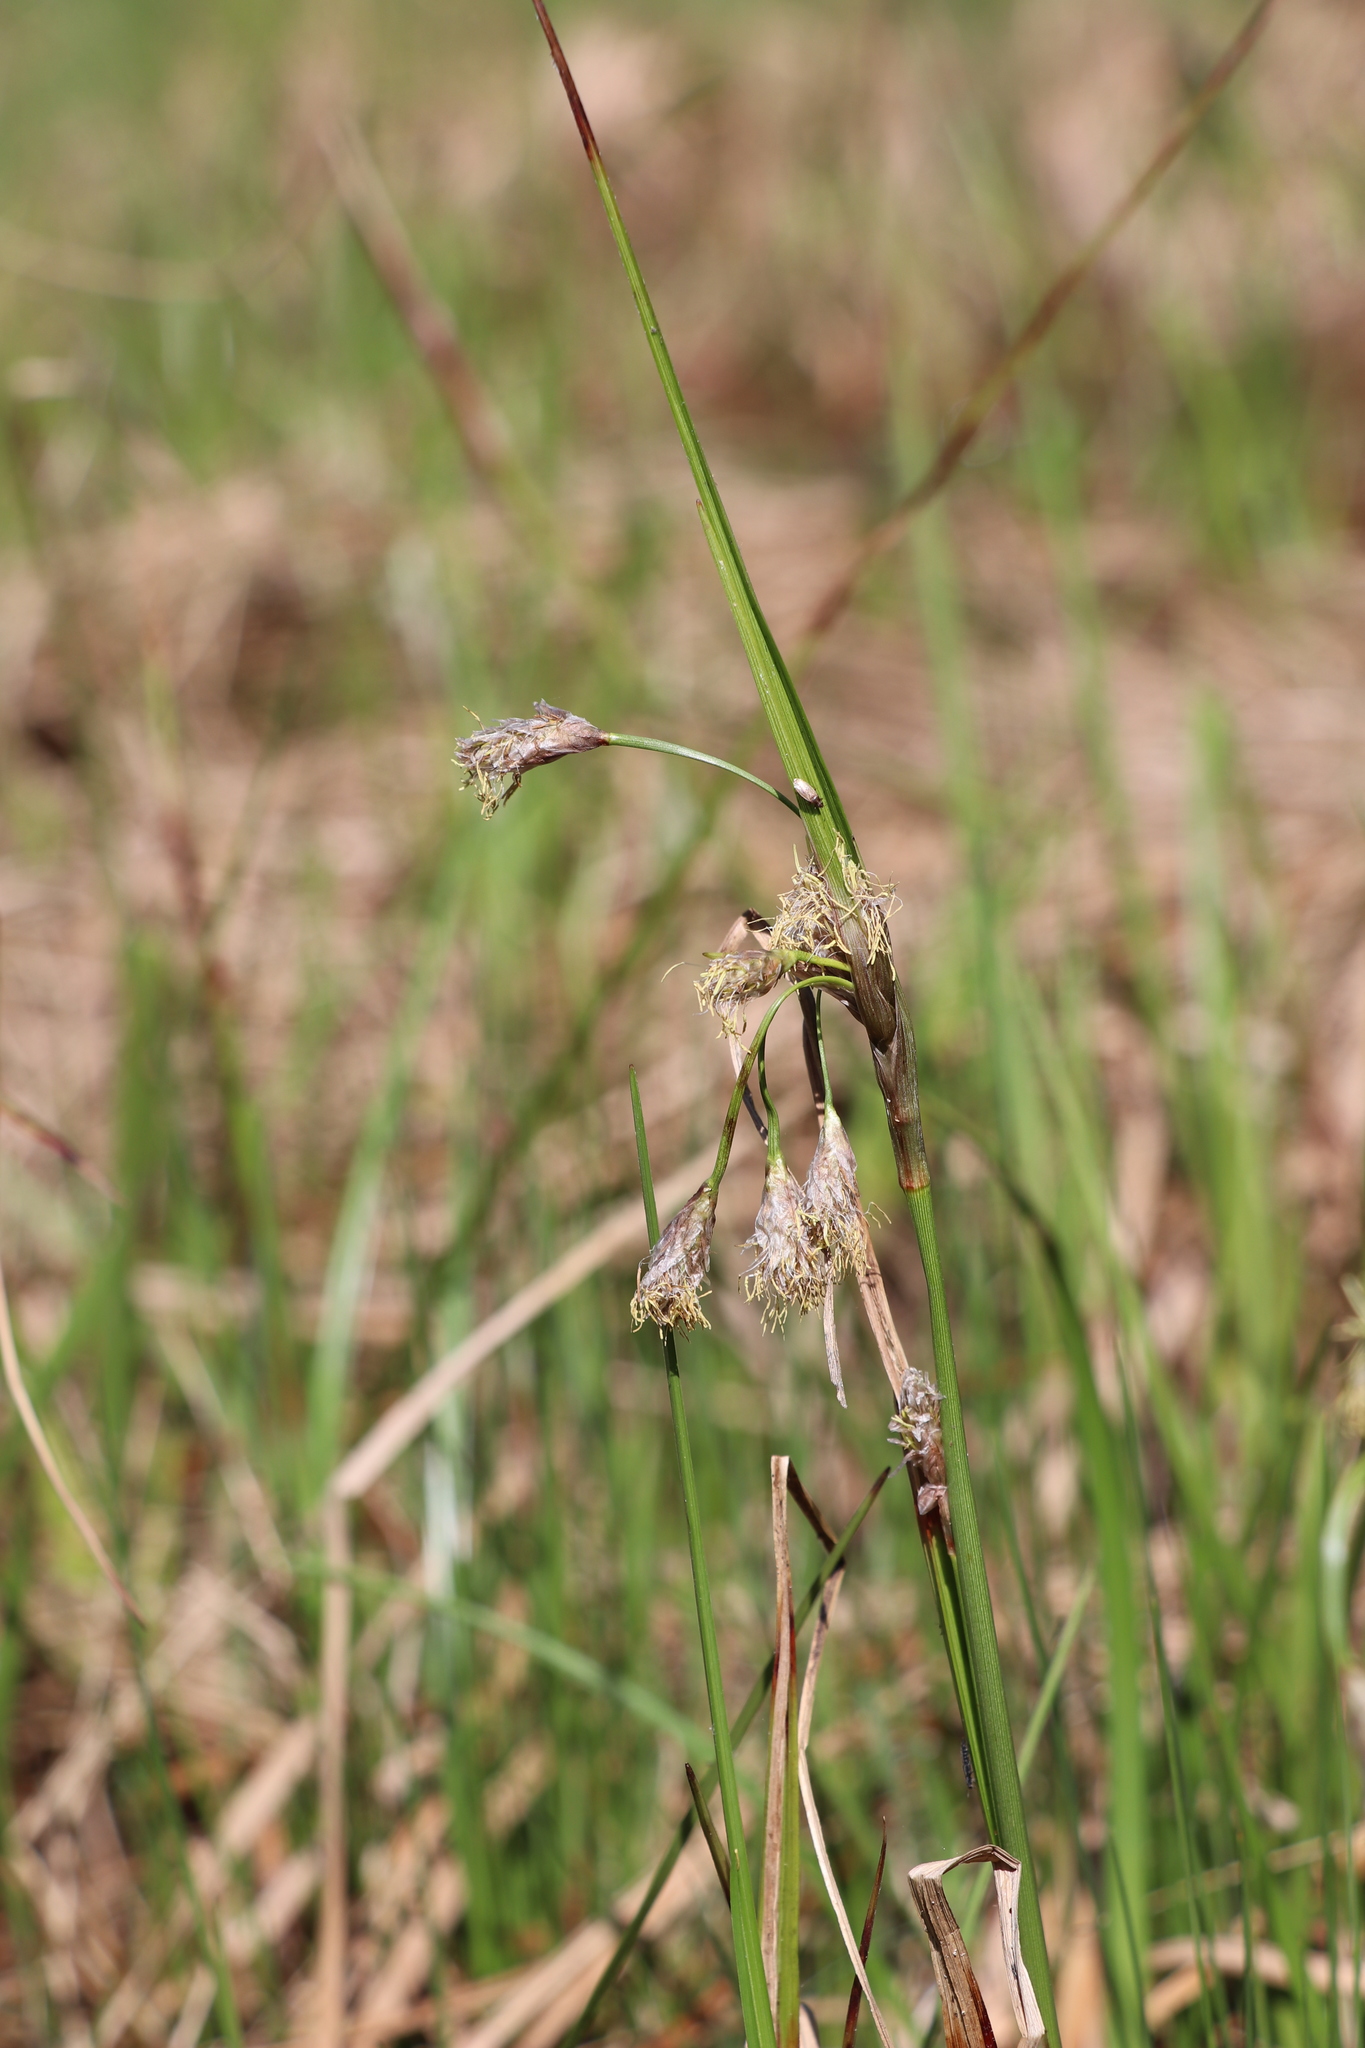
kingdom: Plantae
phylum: Tracheophyta
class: Liliopsida
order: Poales
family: Cyperaceae
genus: Eriophorum
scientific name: Eriophorum angustifolium
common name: Common cottongrass
